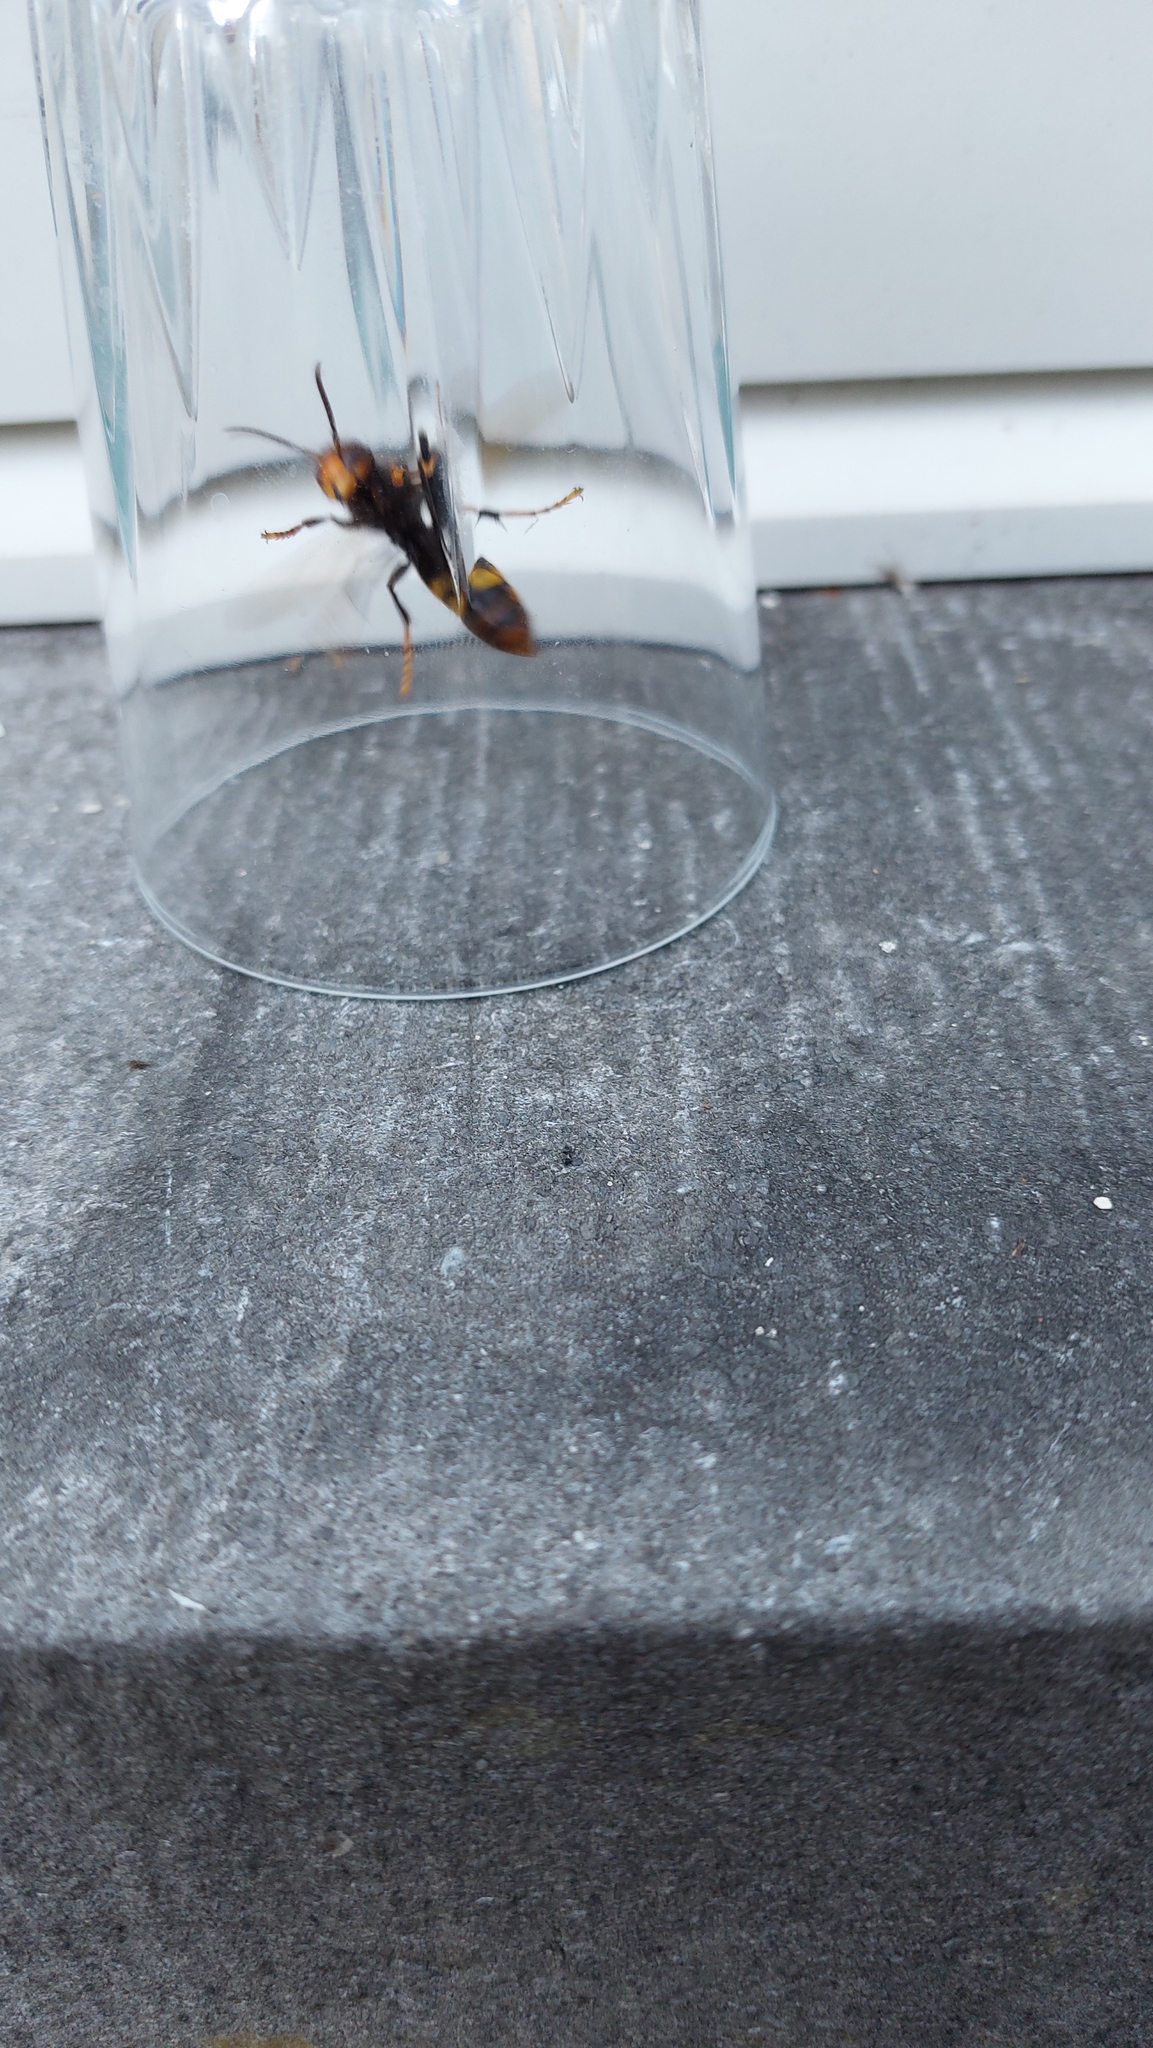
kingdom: Animalia
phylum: Arthropoda
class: Insecta
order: Hymenoptera
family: Vespidae
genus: Vespa
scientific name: Vespa velutina
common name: Asian hornet
